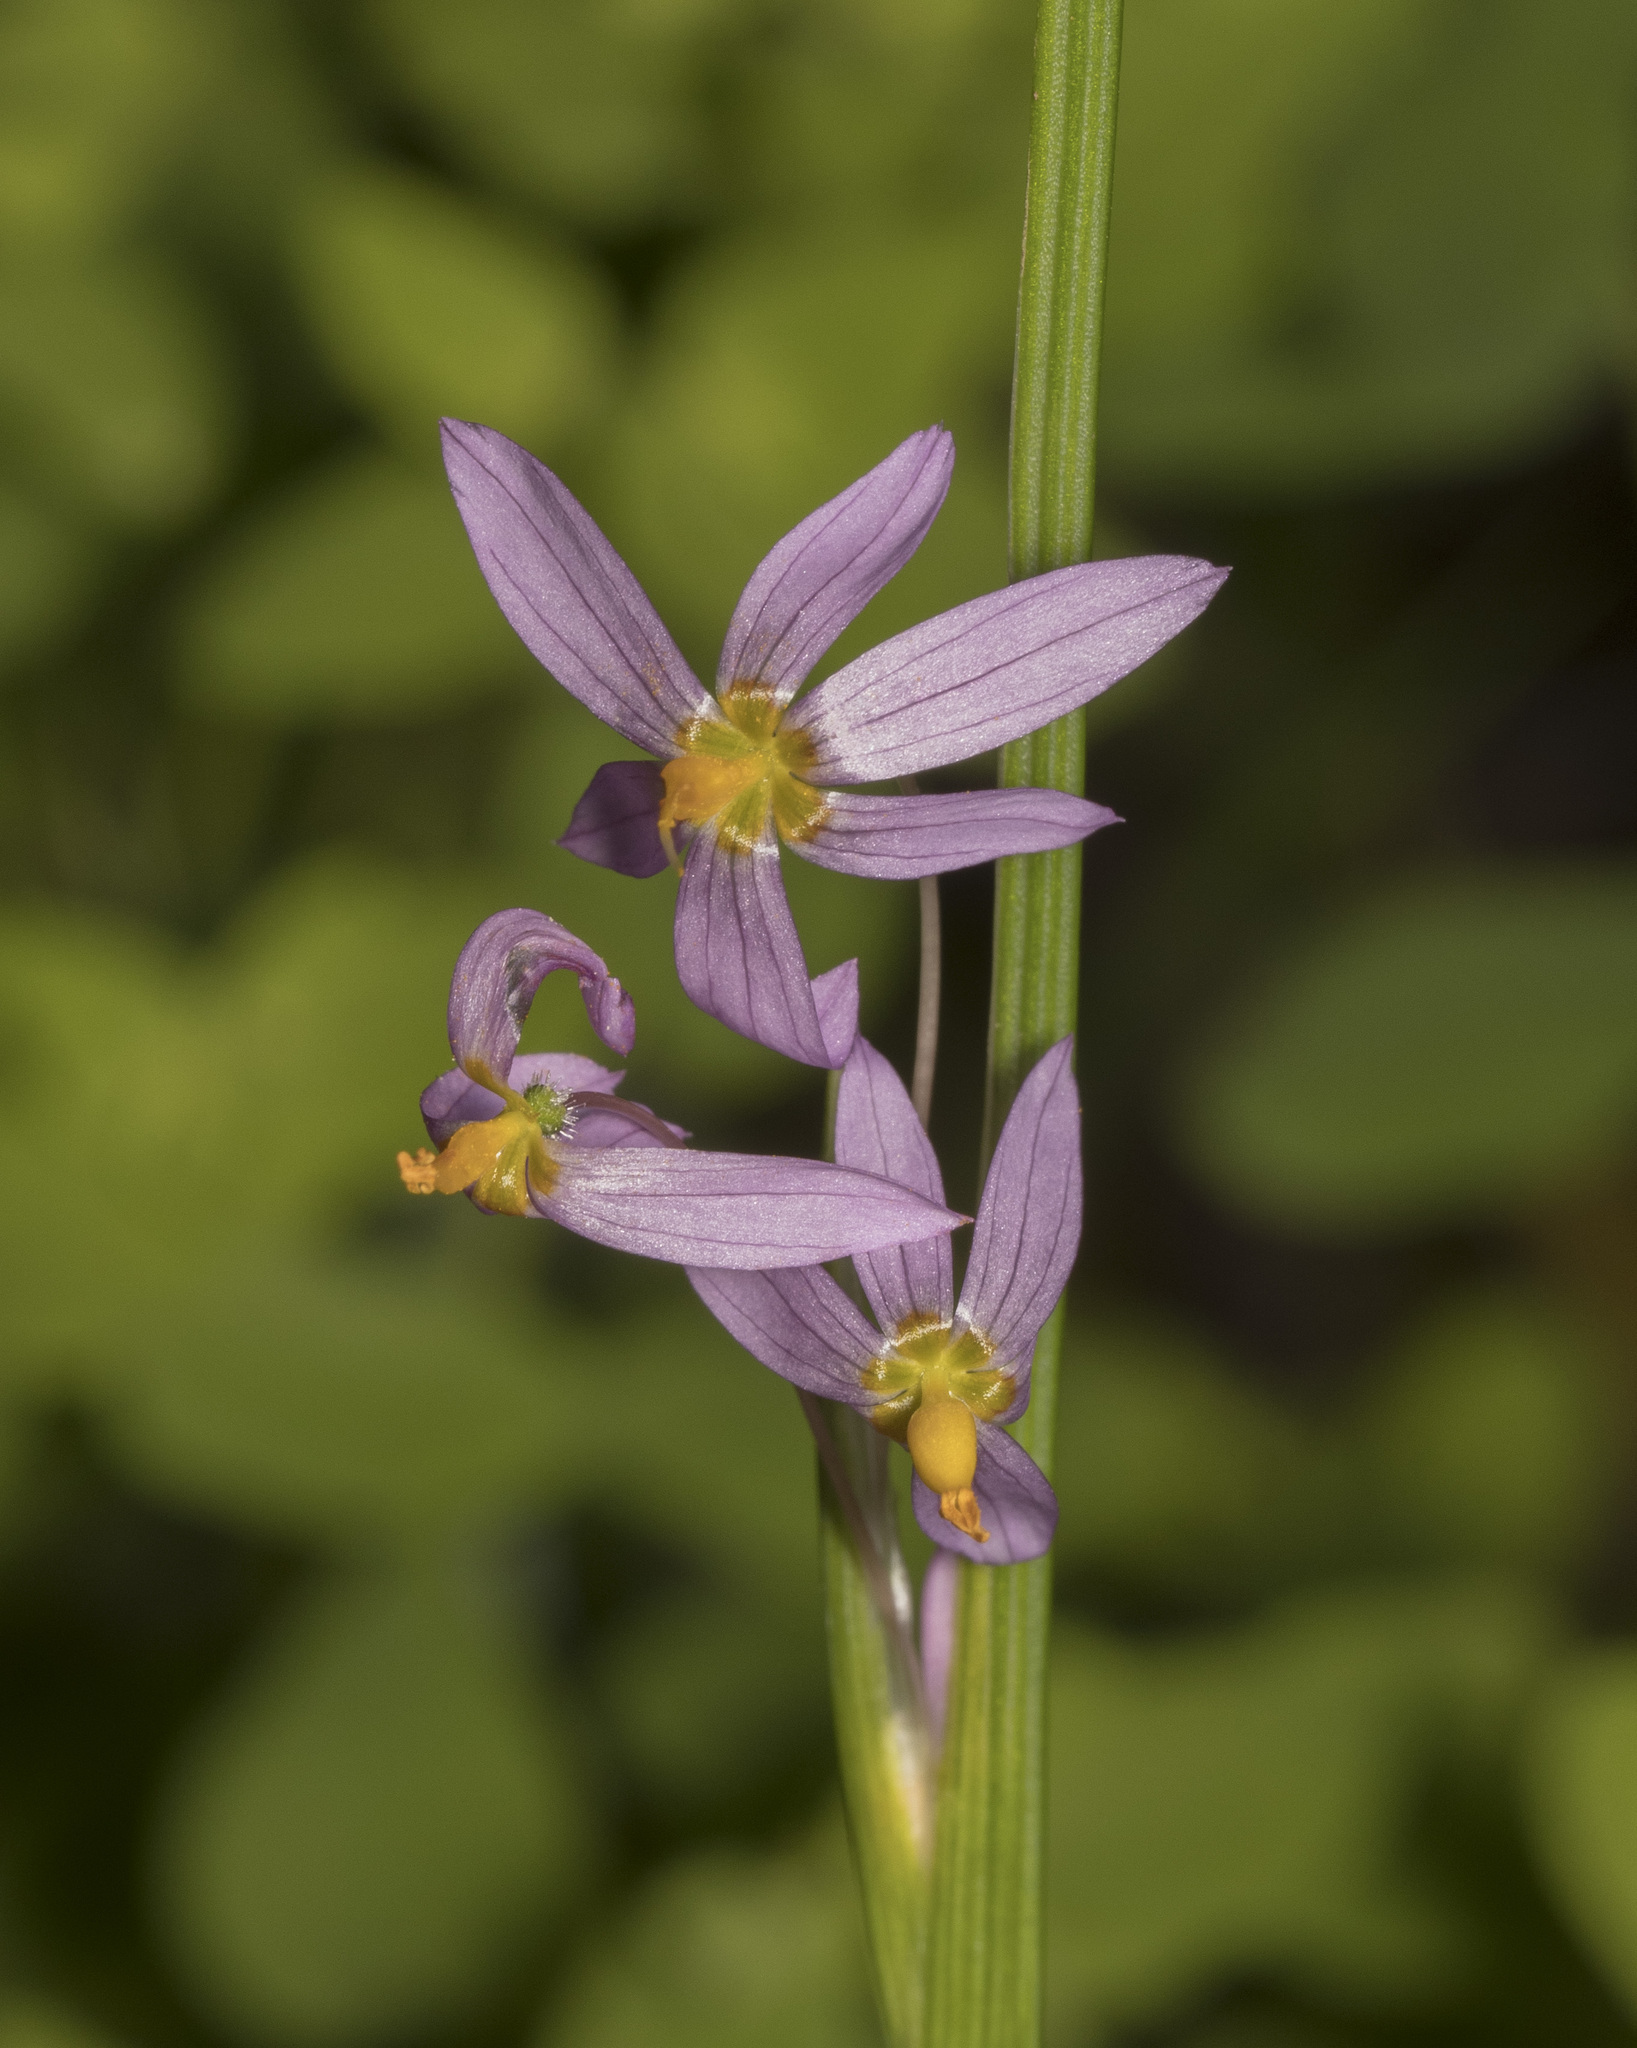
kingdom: Plantae
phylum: Tracheophyta
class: Liliopsida
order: Asparagales
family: Iridaceae
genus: Olsynium
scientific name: Olsynium scirpoideum
